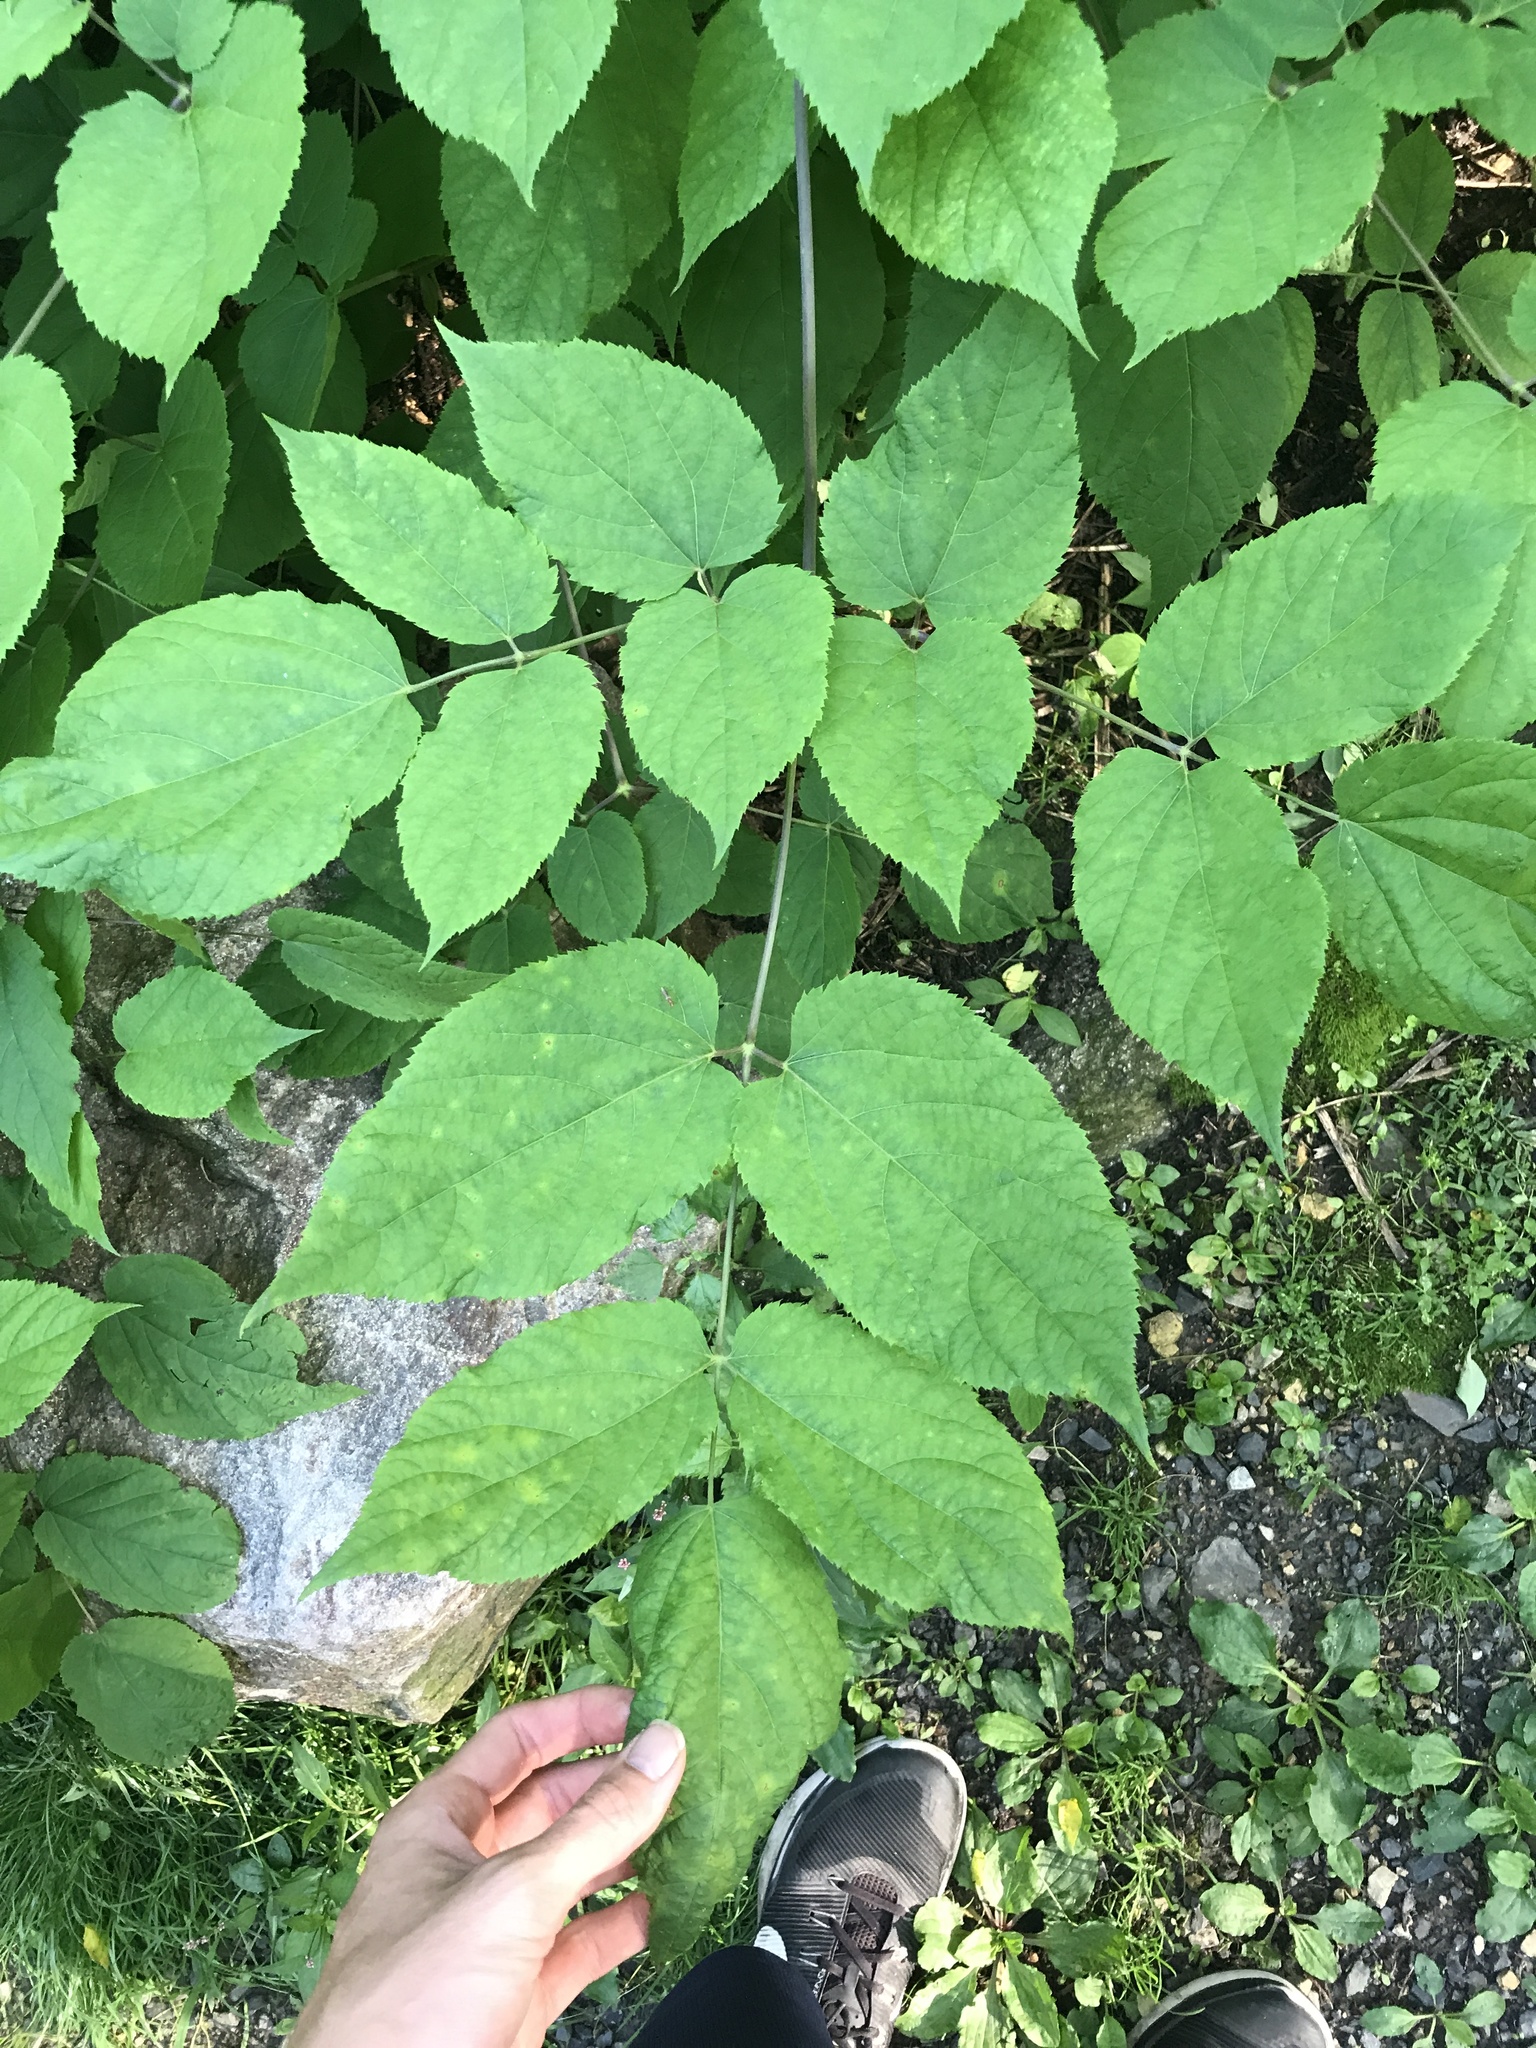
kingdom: Plantae
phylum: Tracheophyta
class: Magnoliopsida
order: Apiales
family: Araliaceae
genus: Aralia
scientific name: Aralia racemosa
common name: American-spikenard
